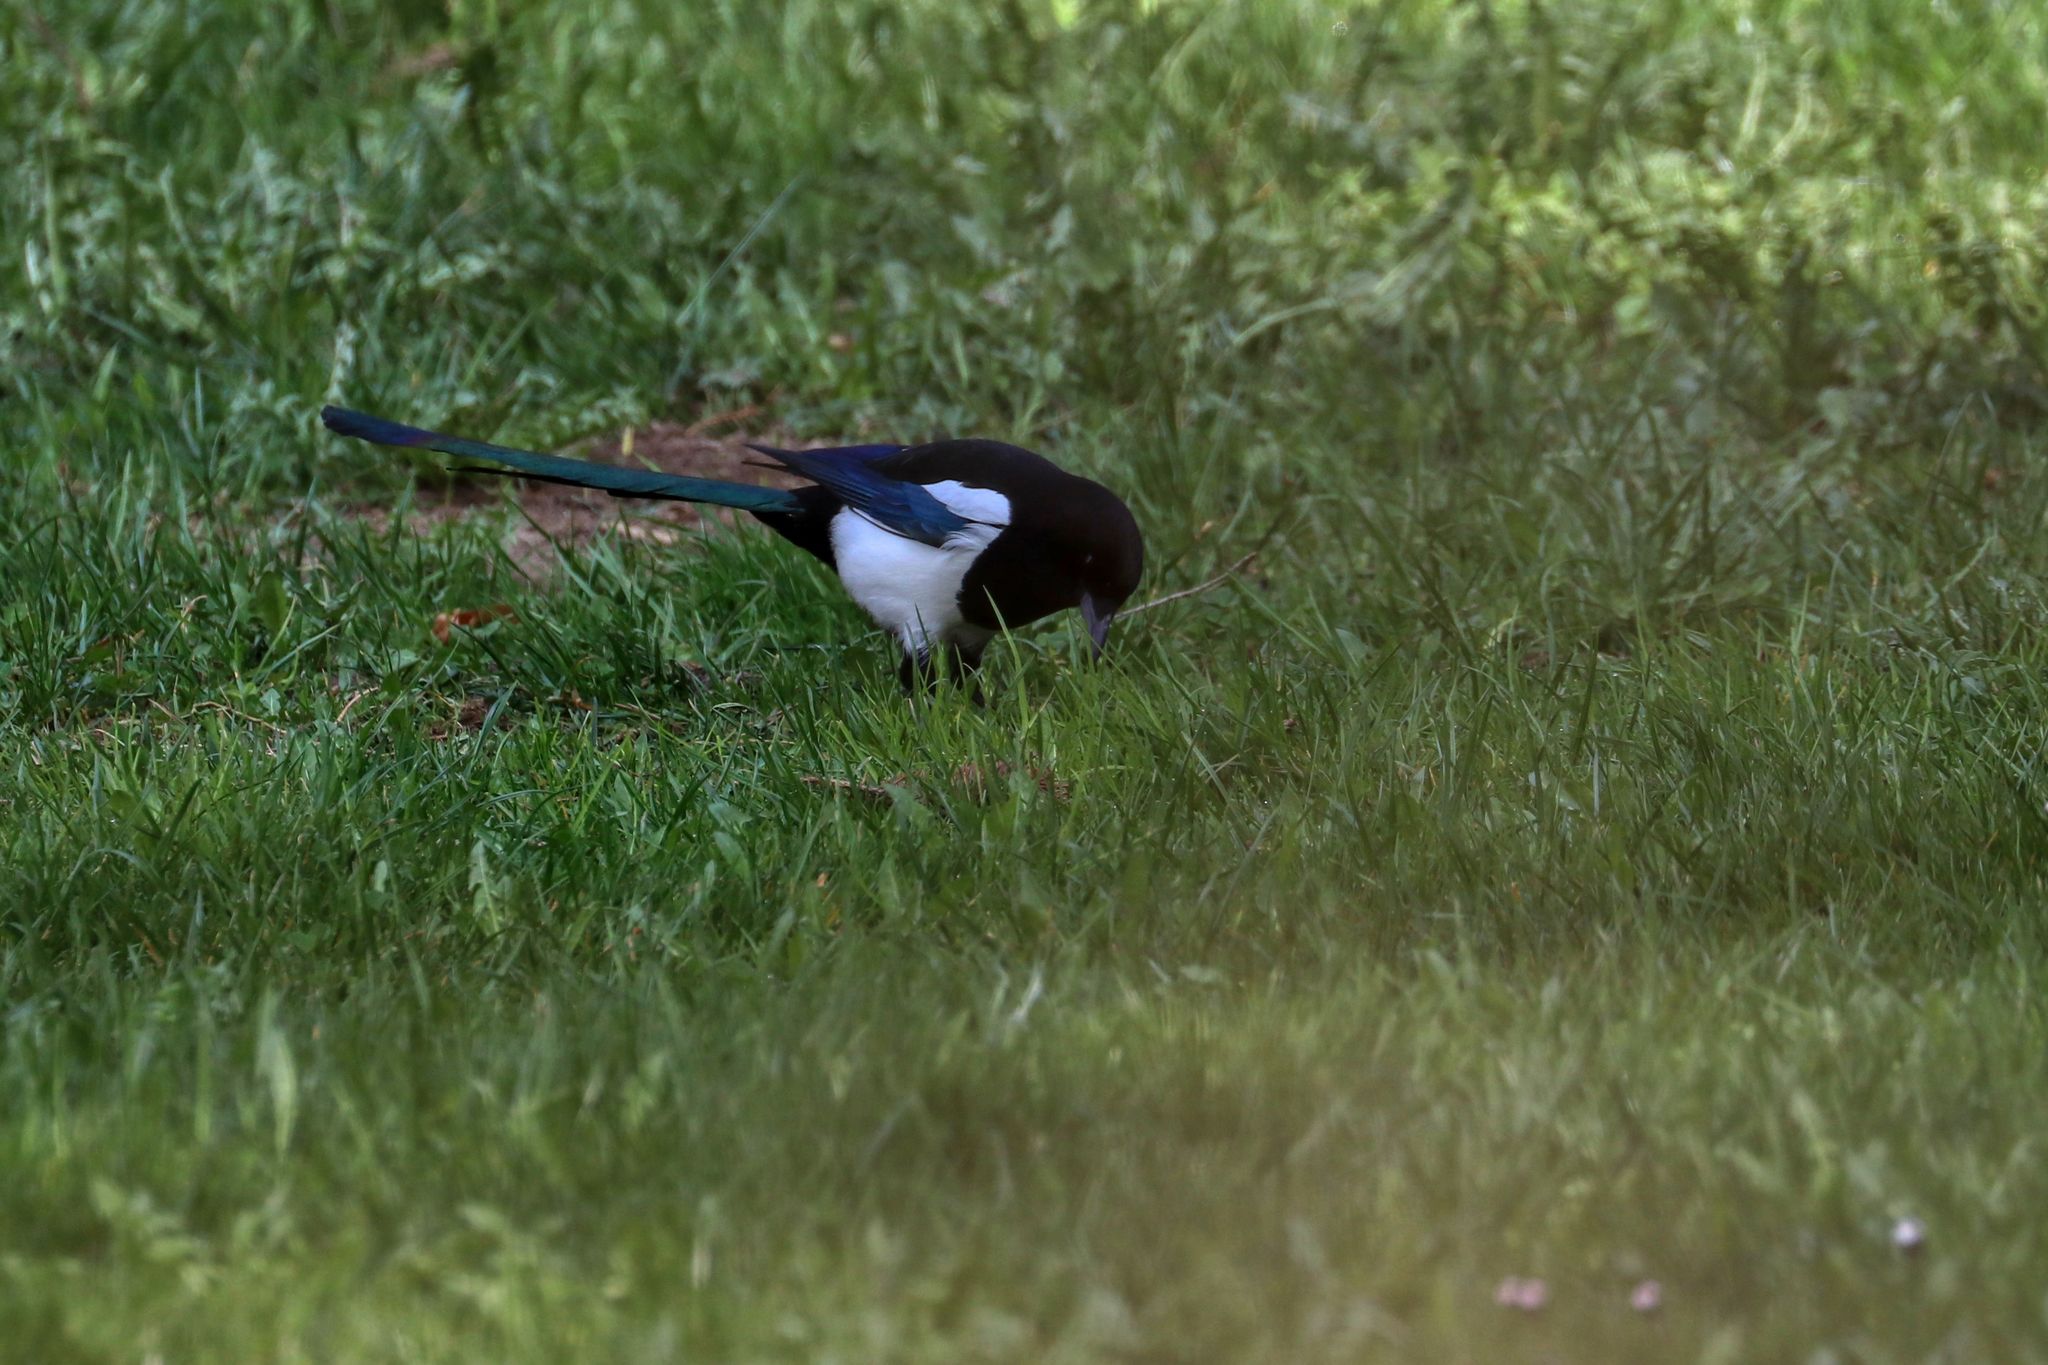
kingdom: Animalia
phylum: Chordata
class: Aves
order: Passeriformes
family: Corvidae
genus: Pica
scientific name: Pica pica
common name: Eurasian magpie
